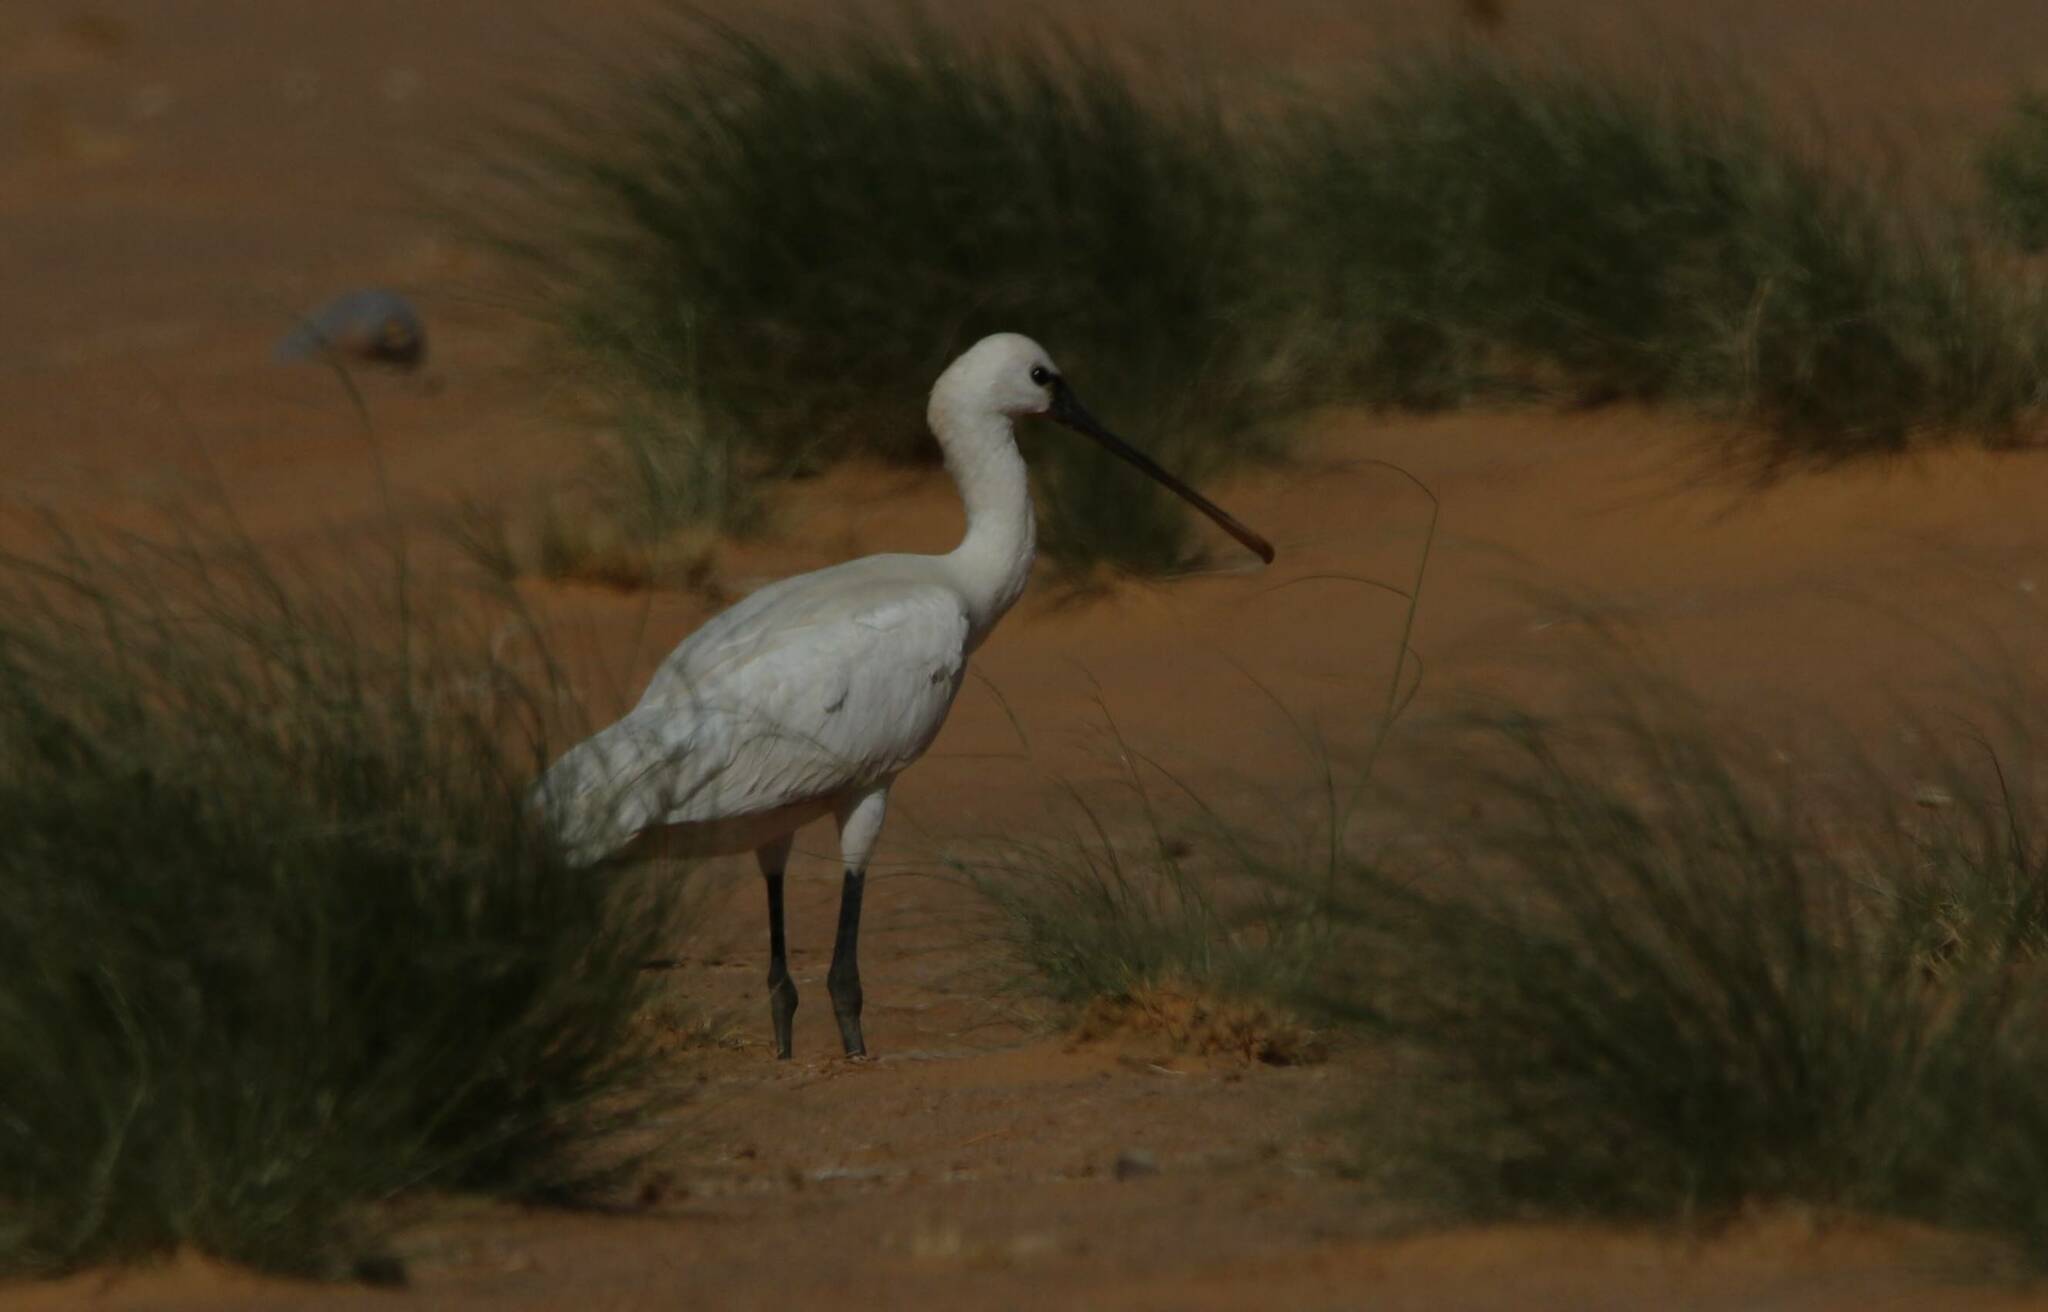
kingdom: Animalia
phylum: Chordata
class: Aves
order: Pelecaniformes
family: Threskiornithidae
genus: Platalea
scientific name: Platalea leucorodia
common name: Eurasian spoonbill
